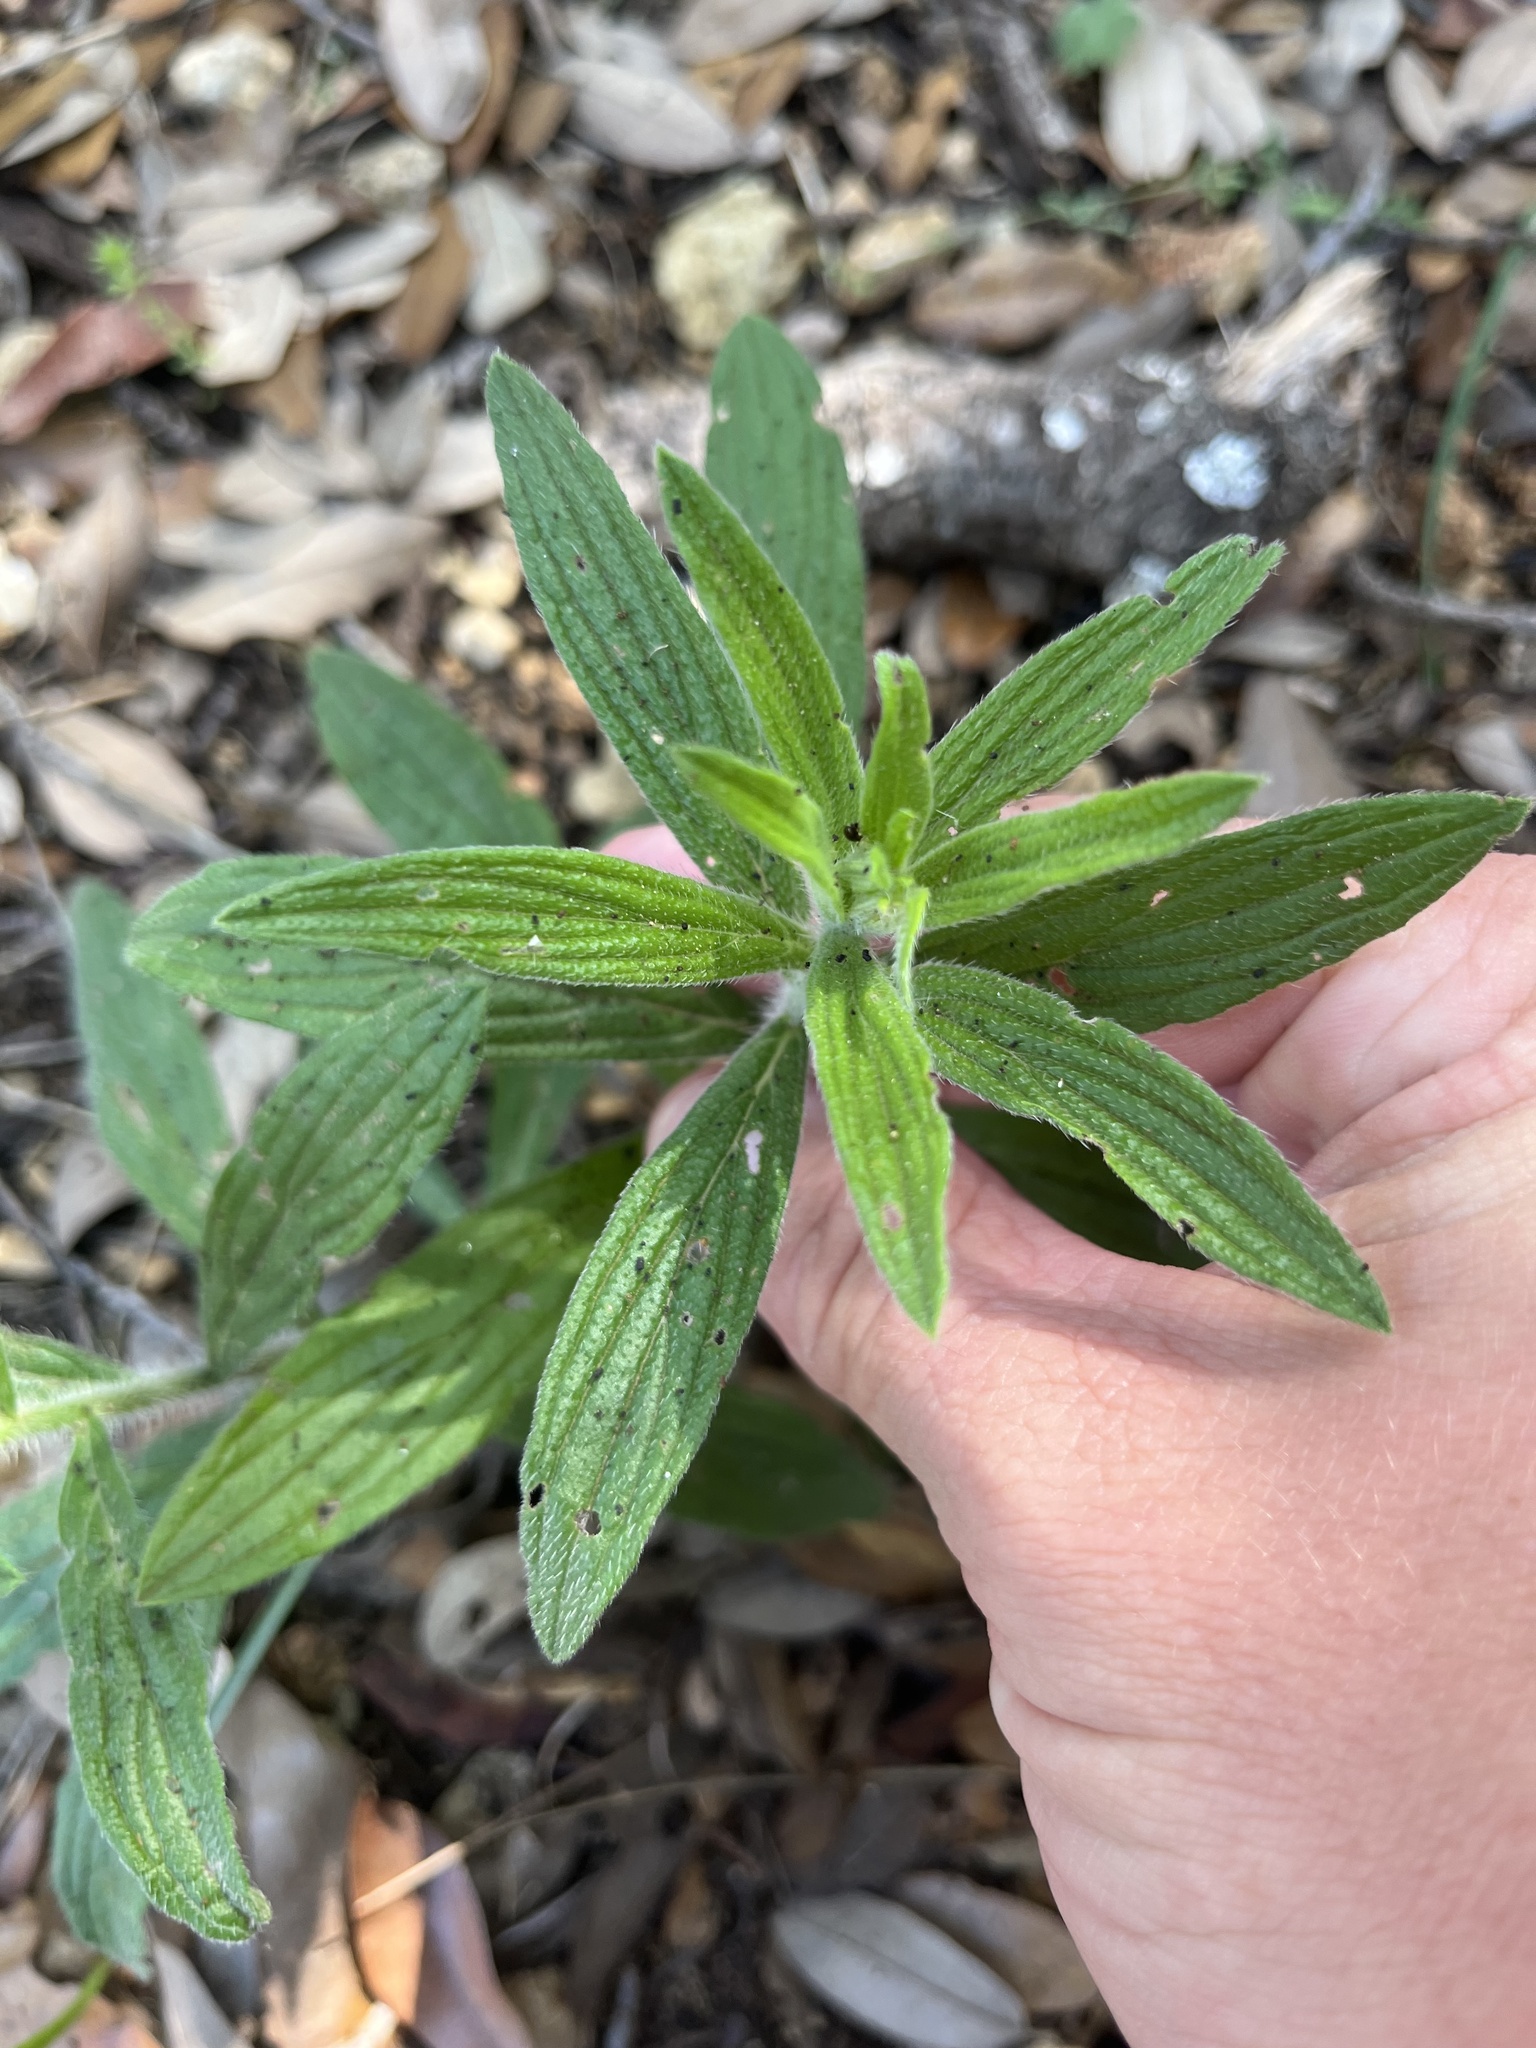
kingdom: Plantae
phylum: Tracheophyta
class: Magnoliopsida
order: Boraginales
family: Boraginaceae
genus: Lithospermum
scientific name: Lithospermum caroliniense
